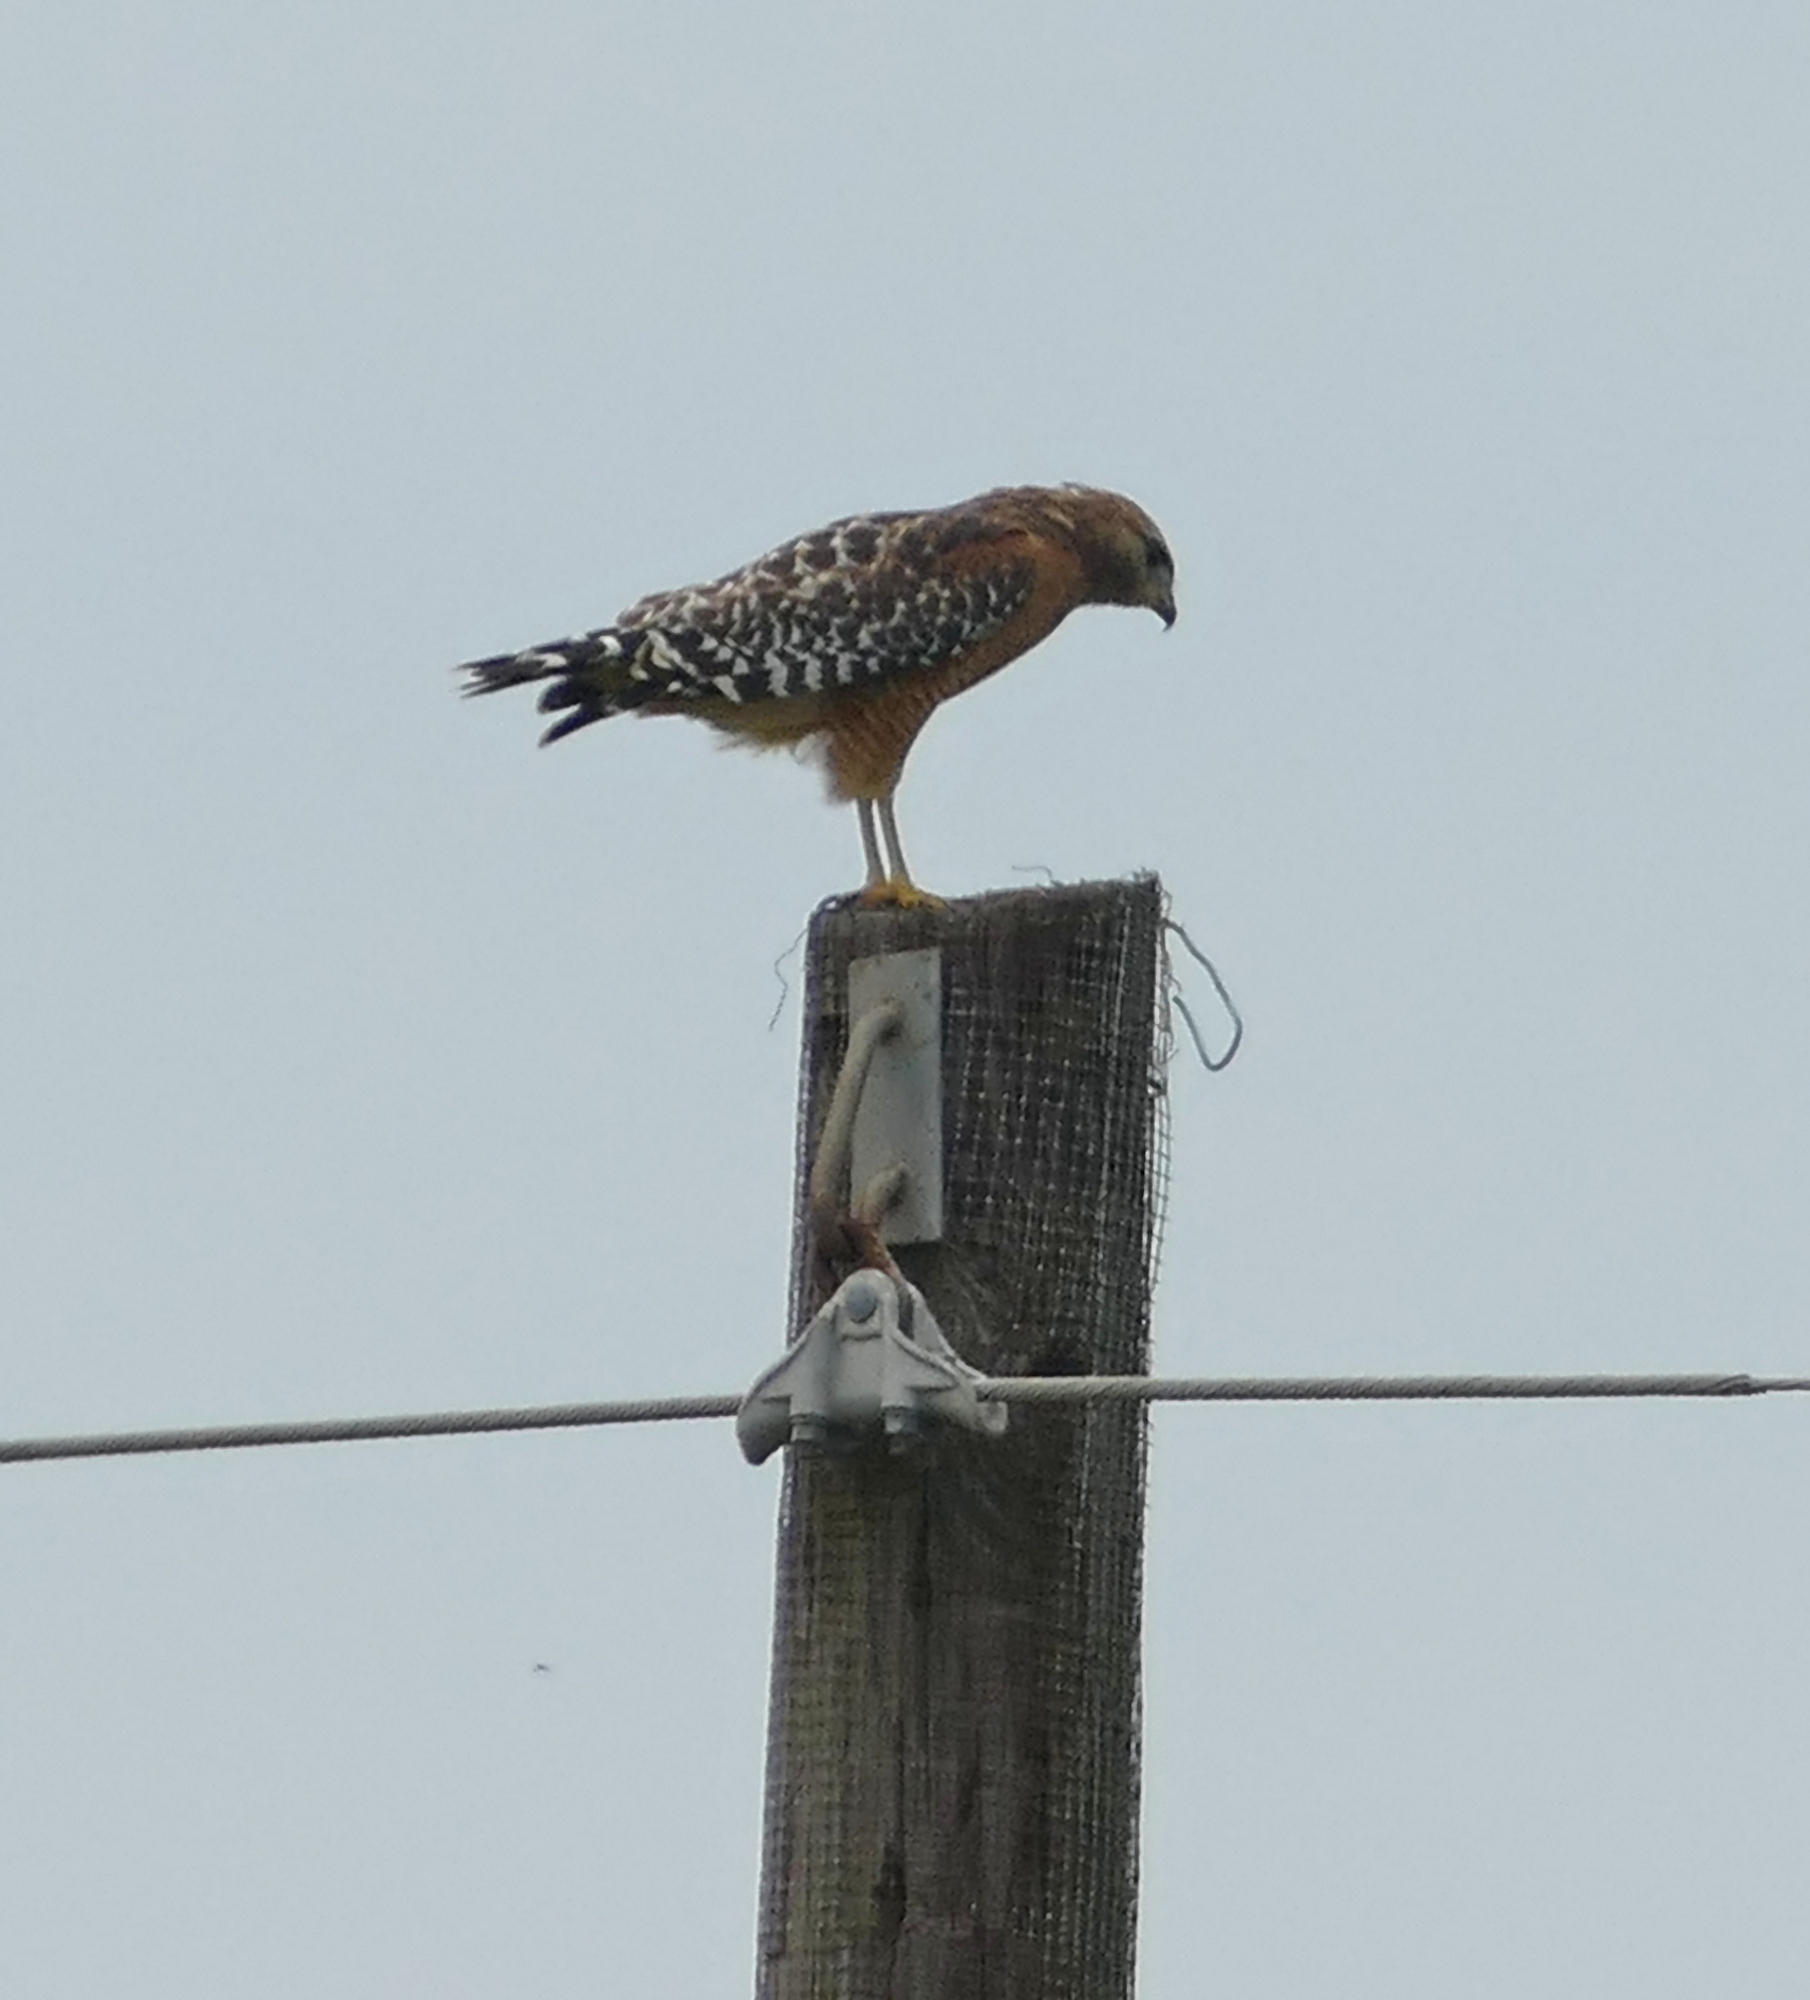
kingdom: Animalia
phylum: Chordata
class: Aves
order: Accipitriformes
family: Accipitridae
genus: Buteo
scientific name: Buteo lineatus
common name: Red-shouldered hawk
